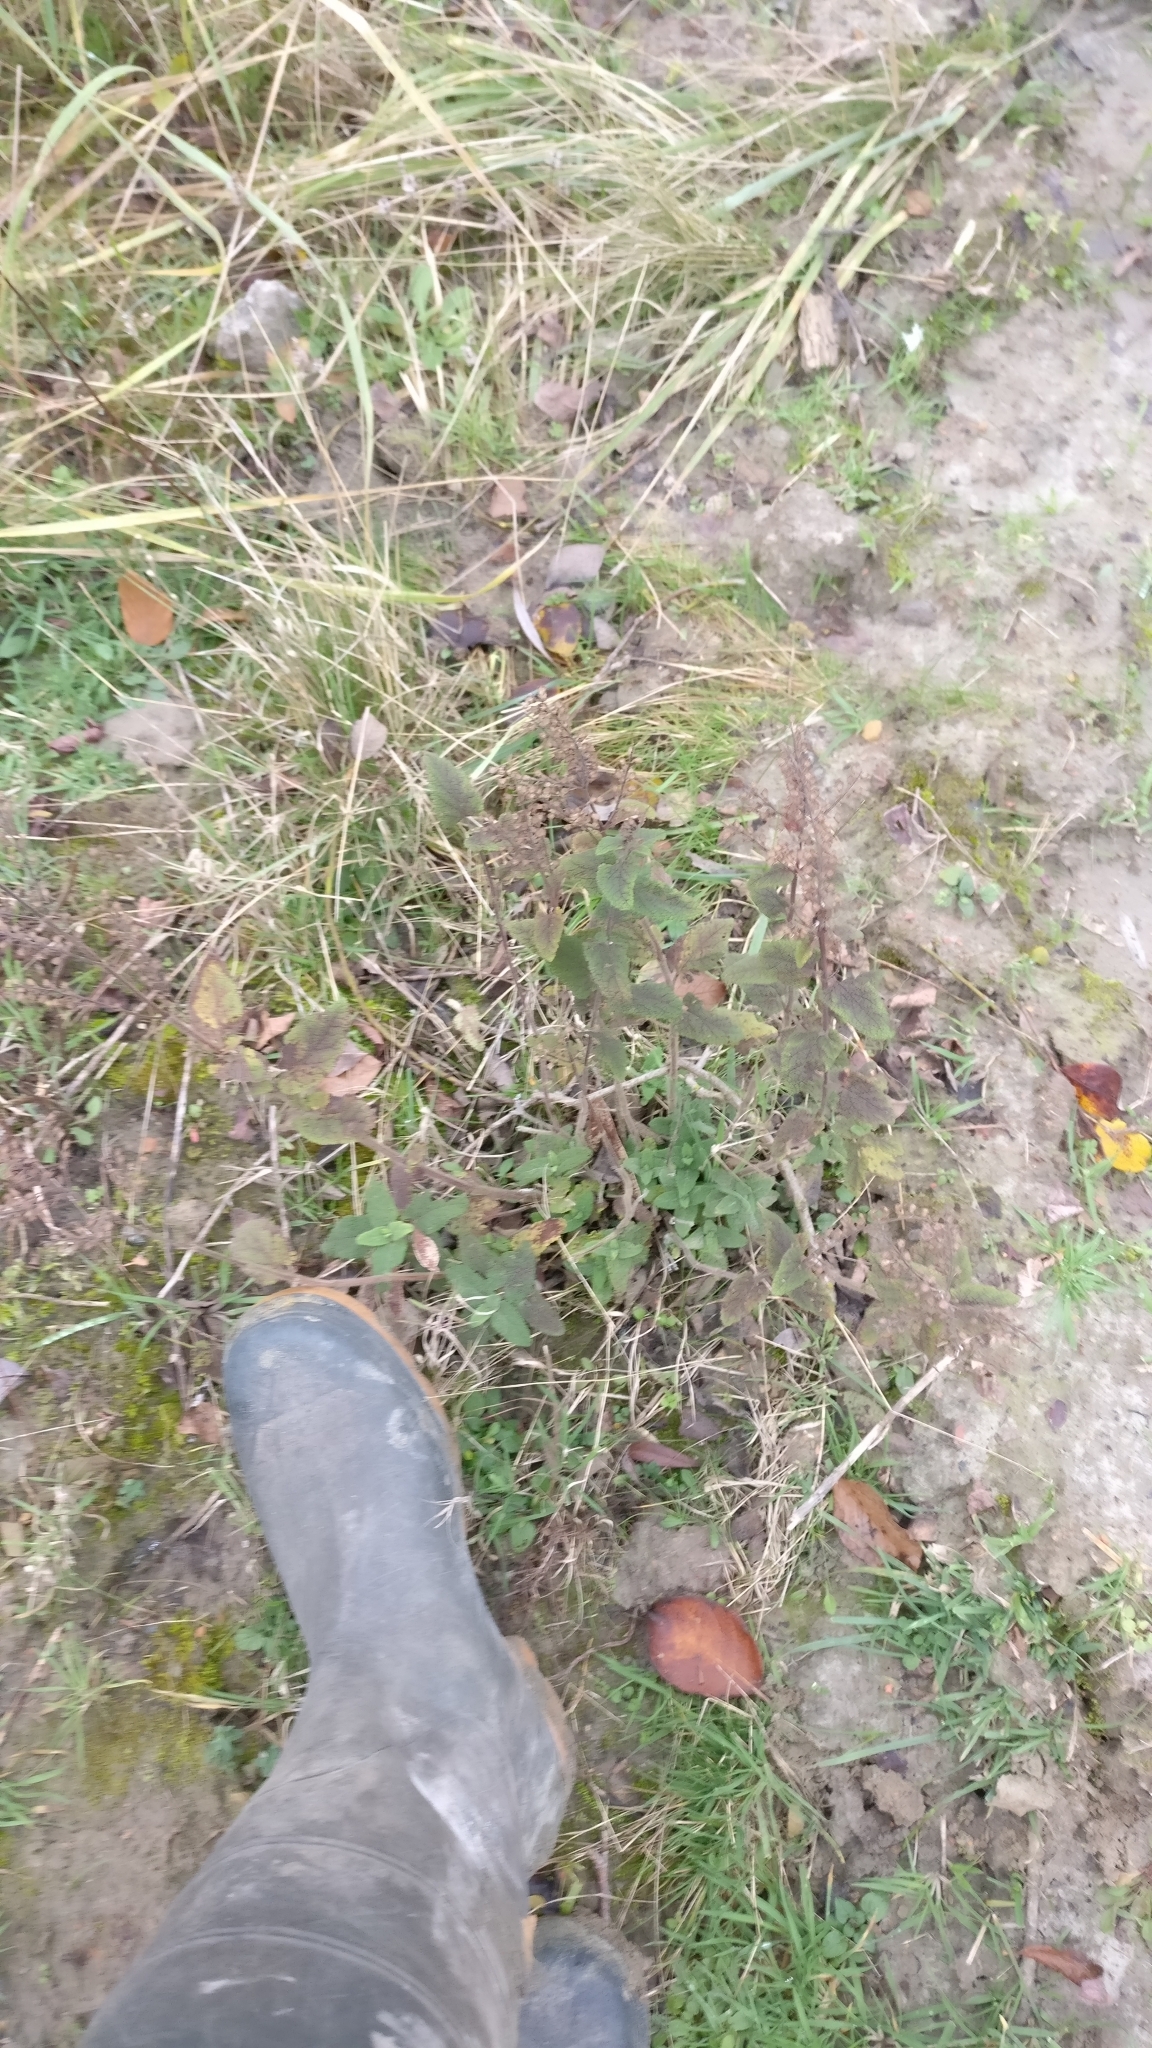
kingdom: Plantae
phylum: Tracheophyta
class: Magnoliopsida
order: Lamiales
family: Lamiaceae
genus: Teucrium
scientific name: Teucrium scorodonia
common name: Woodland germander
